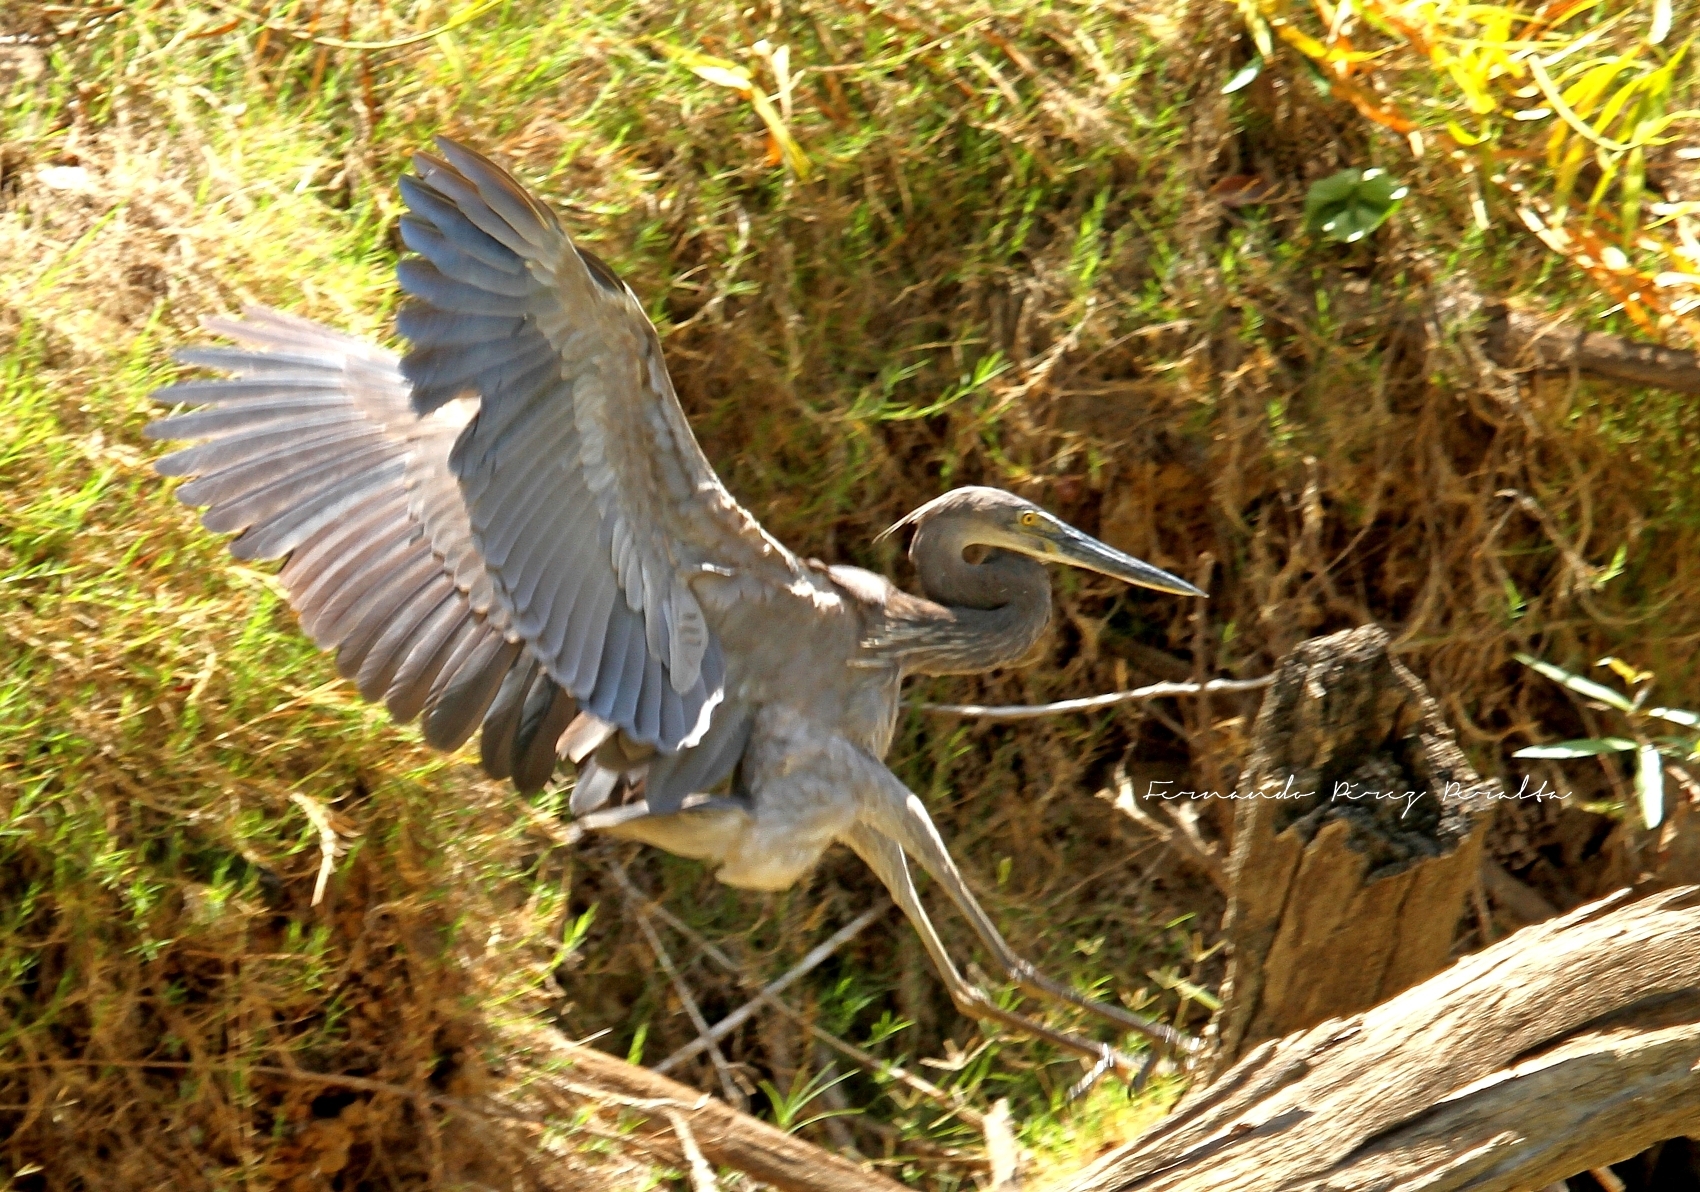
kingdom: Animalia
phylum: Chordata
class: Aves
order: Pelecaniformes
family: Ardeidae
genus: Ardea
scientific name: Ardea sumatrana
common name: Great-billed heron
